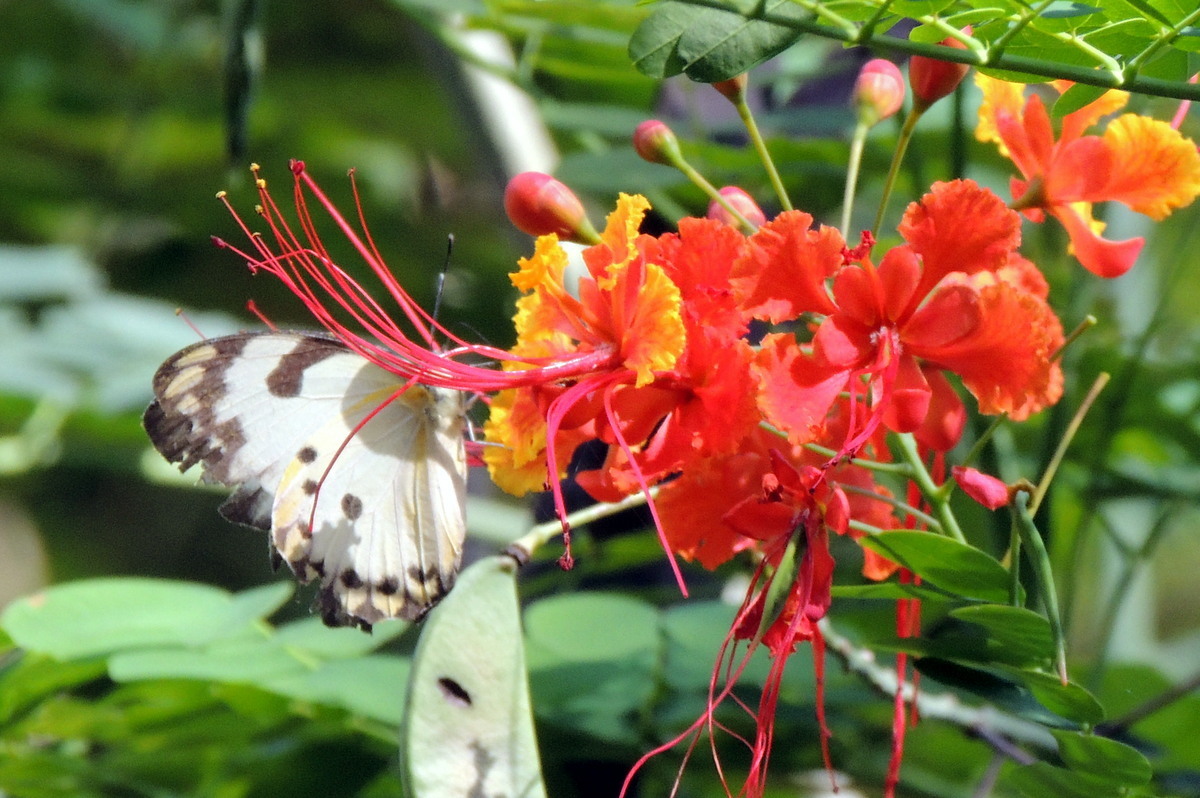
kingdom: Plantae
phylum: Tracheophyta
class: Magnoliopsida
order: Fabales
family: Fabaceae
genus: Caesalpinia
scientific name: Caesalpinia pulcherrima
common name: Pride-of-barbados
